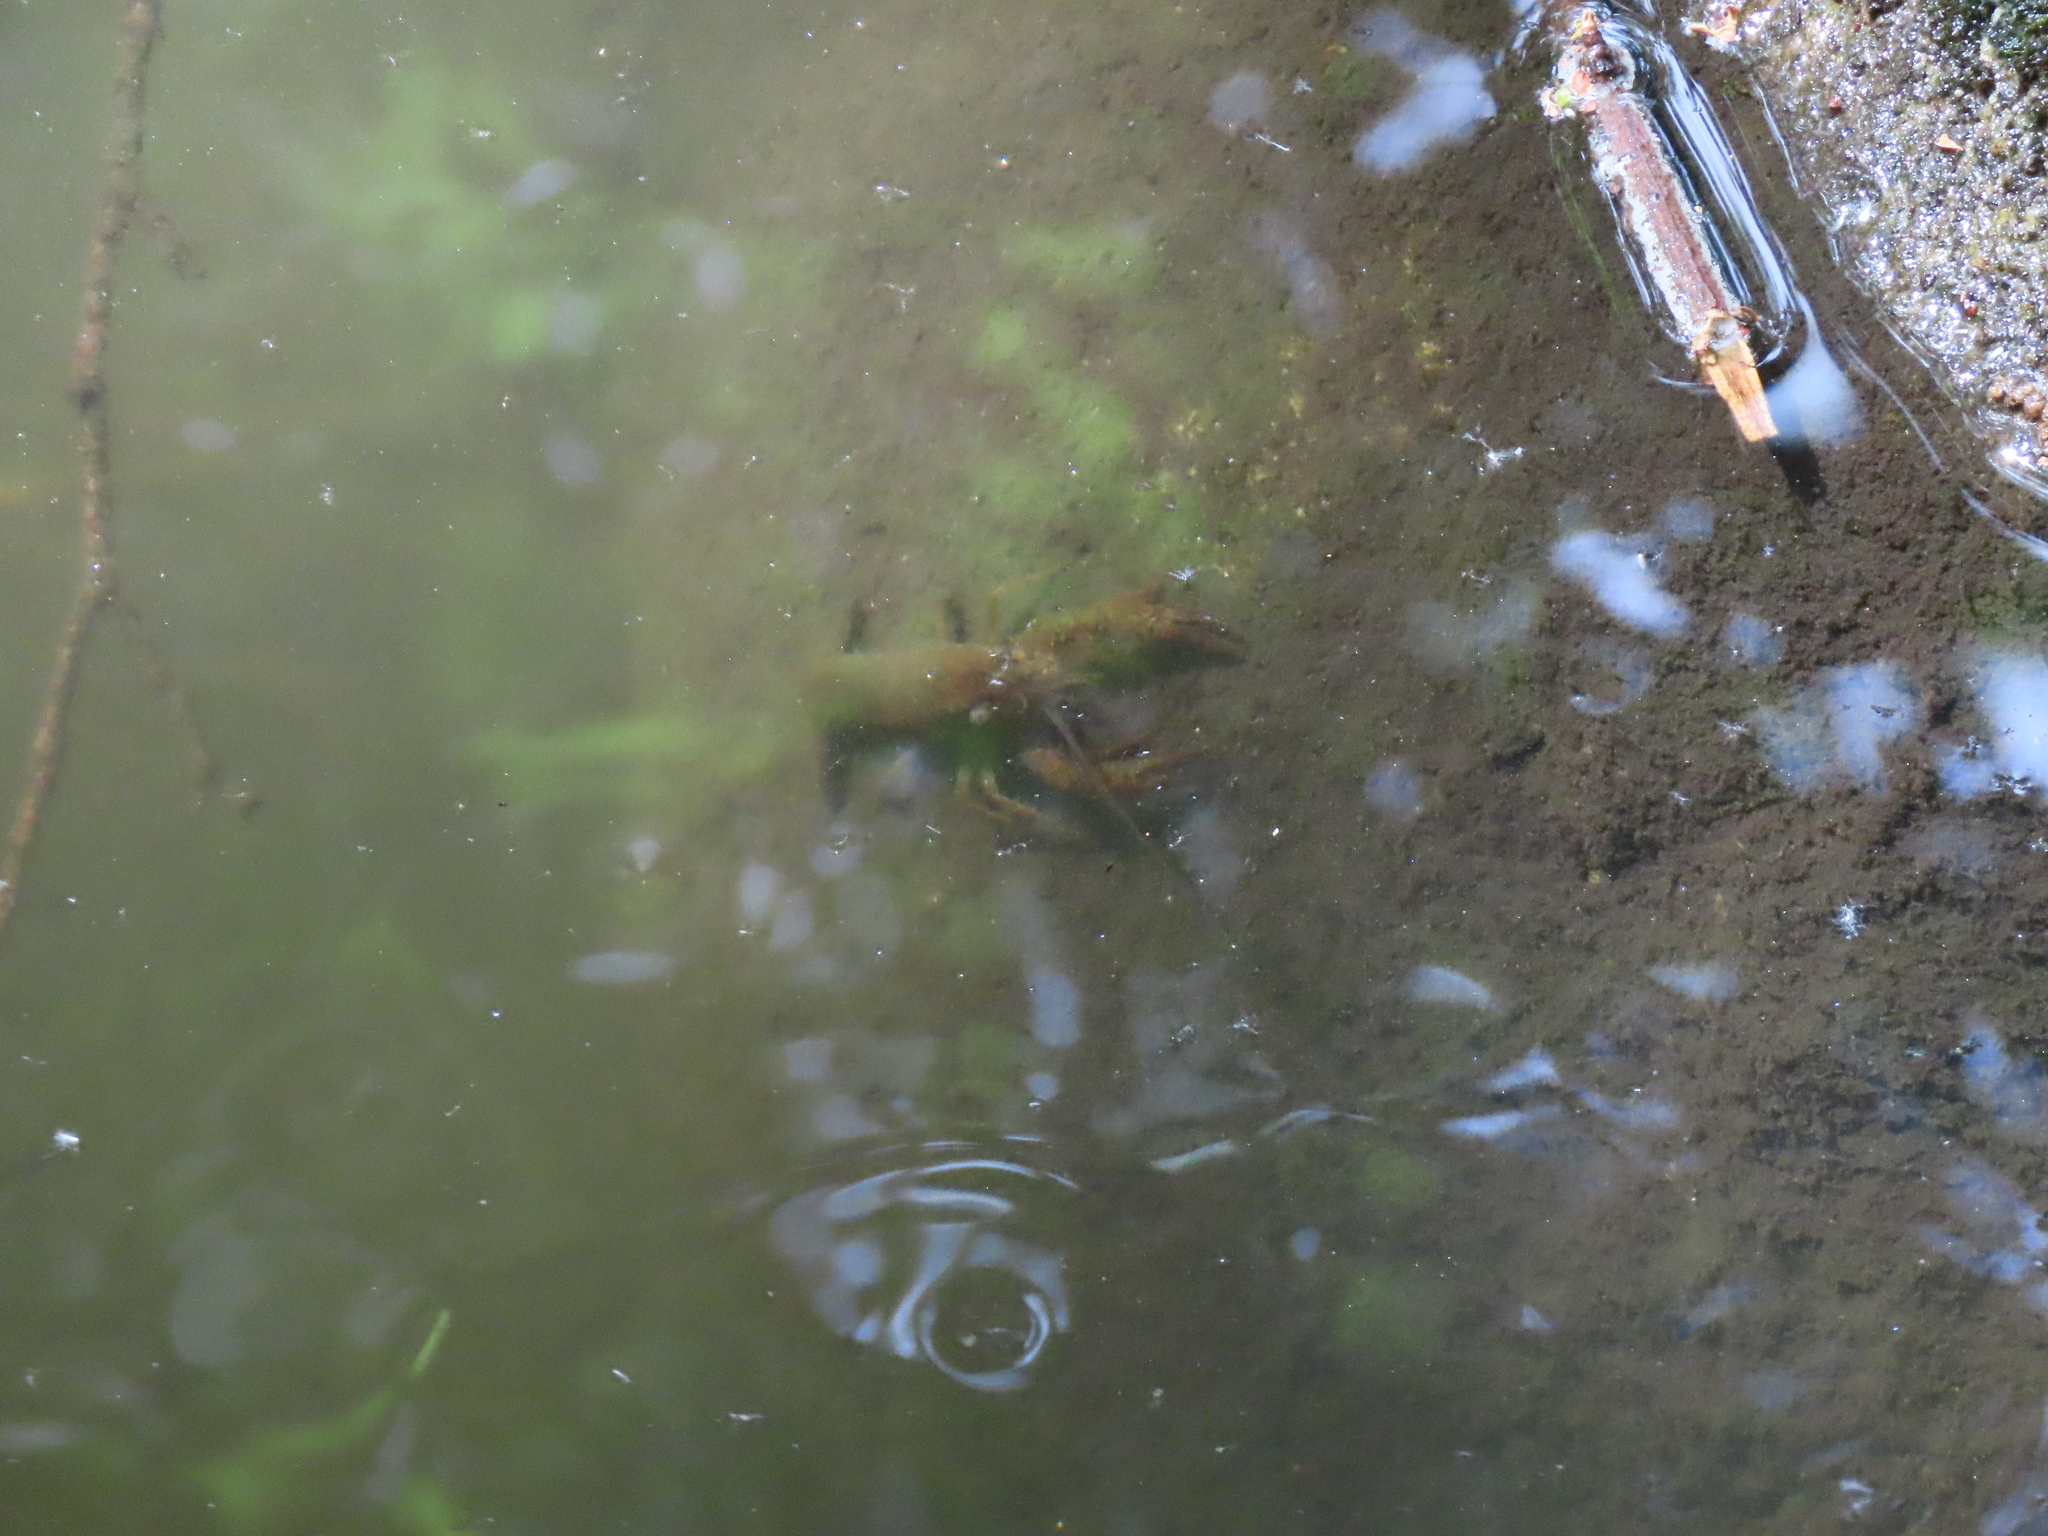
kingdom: Animalia
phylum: Arthropoda
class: Malacostraca
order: Decapoda
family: Cambaridae
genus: Procambarus
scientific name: Procambarus clarkii
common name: Red swamp crayfish
